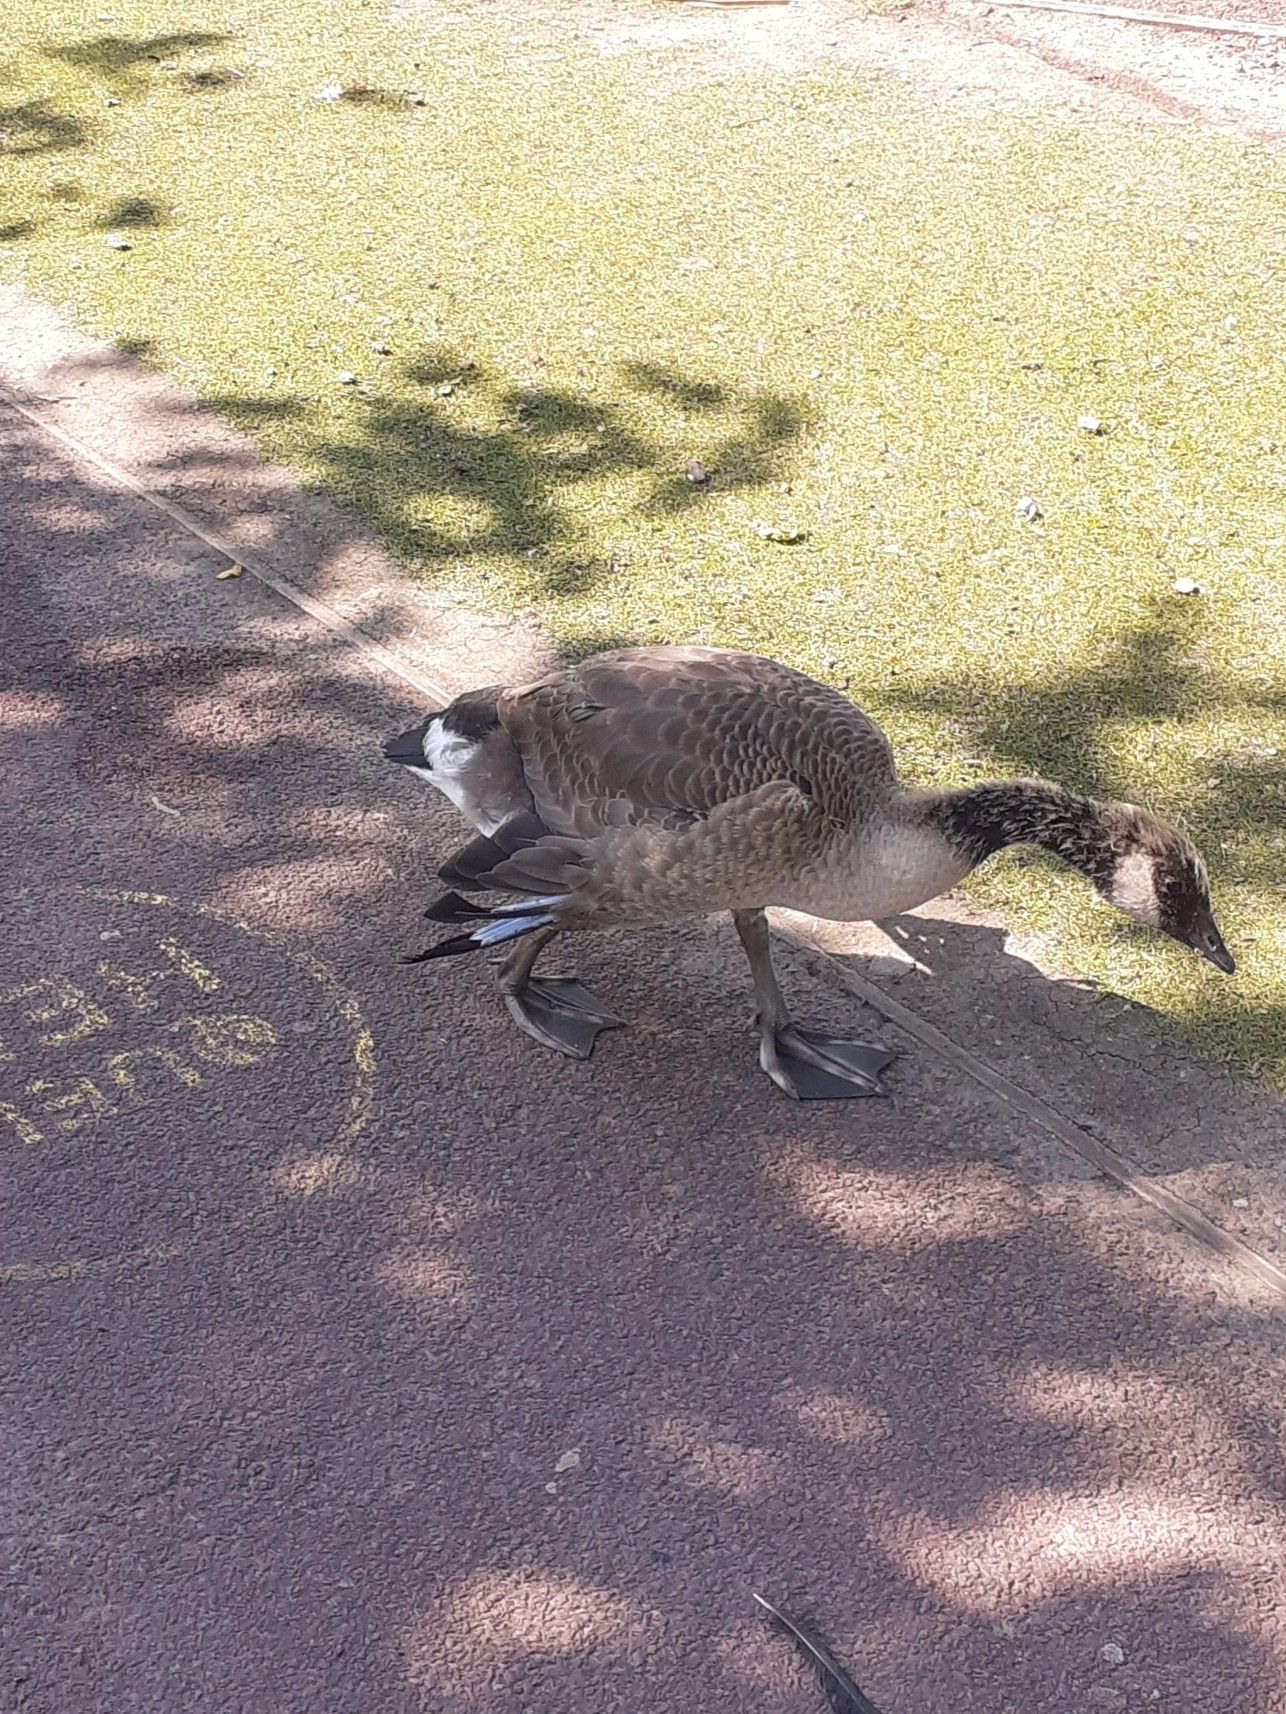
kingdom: Animalia
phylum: Chordata
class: Aves
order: Anseriformes
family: Anatidae
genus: Branta
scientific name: Branta canadensis
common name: Canada goose
